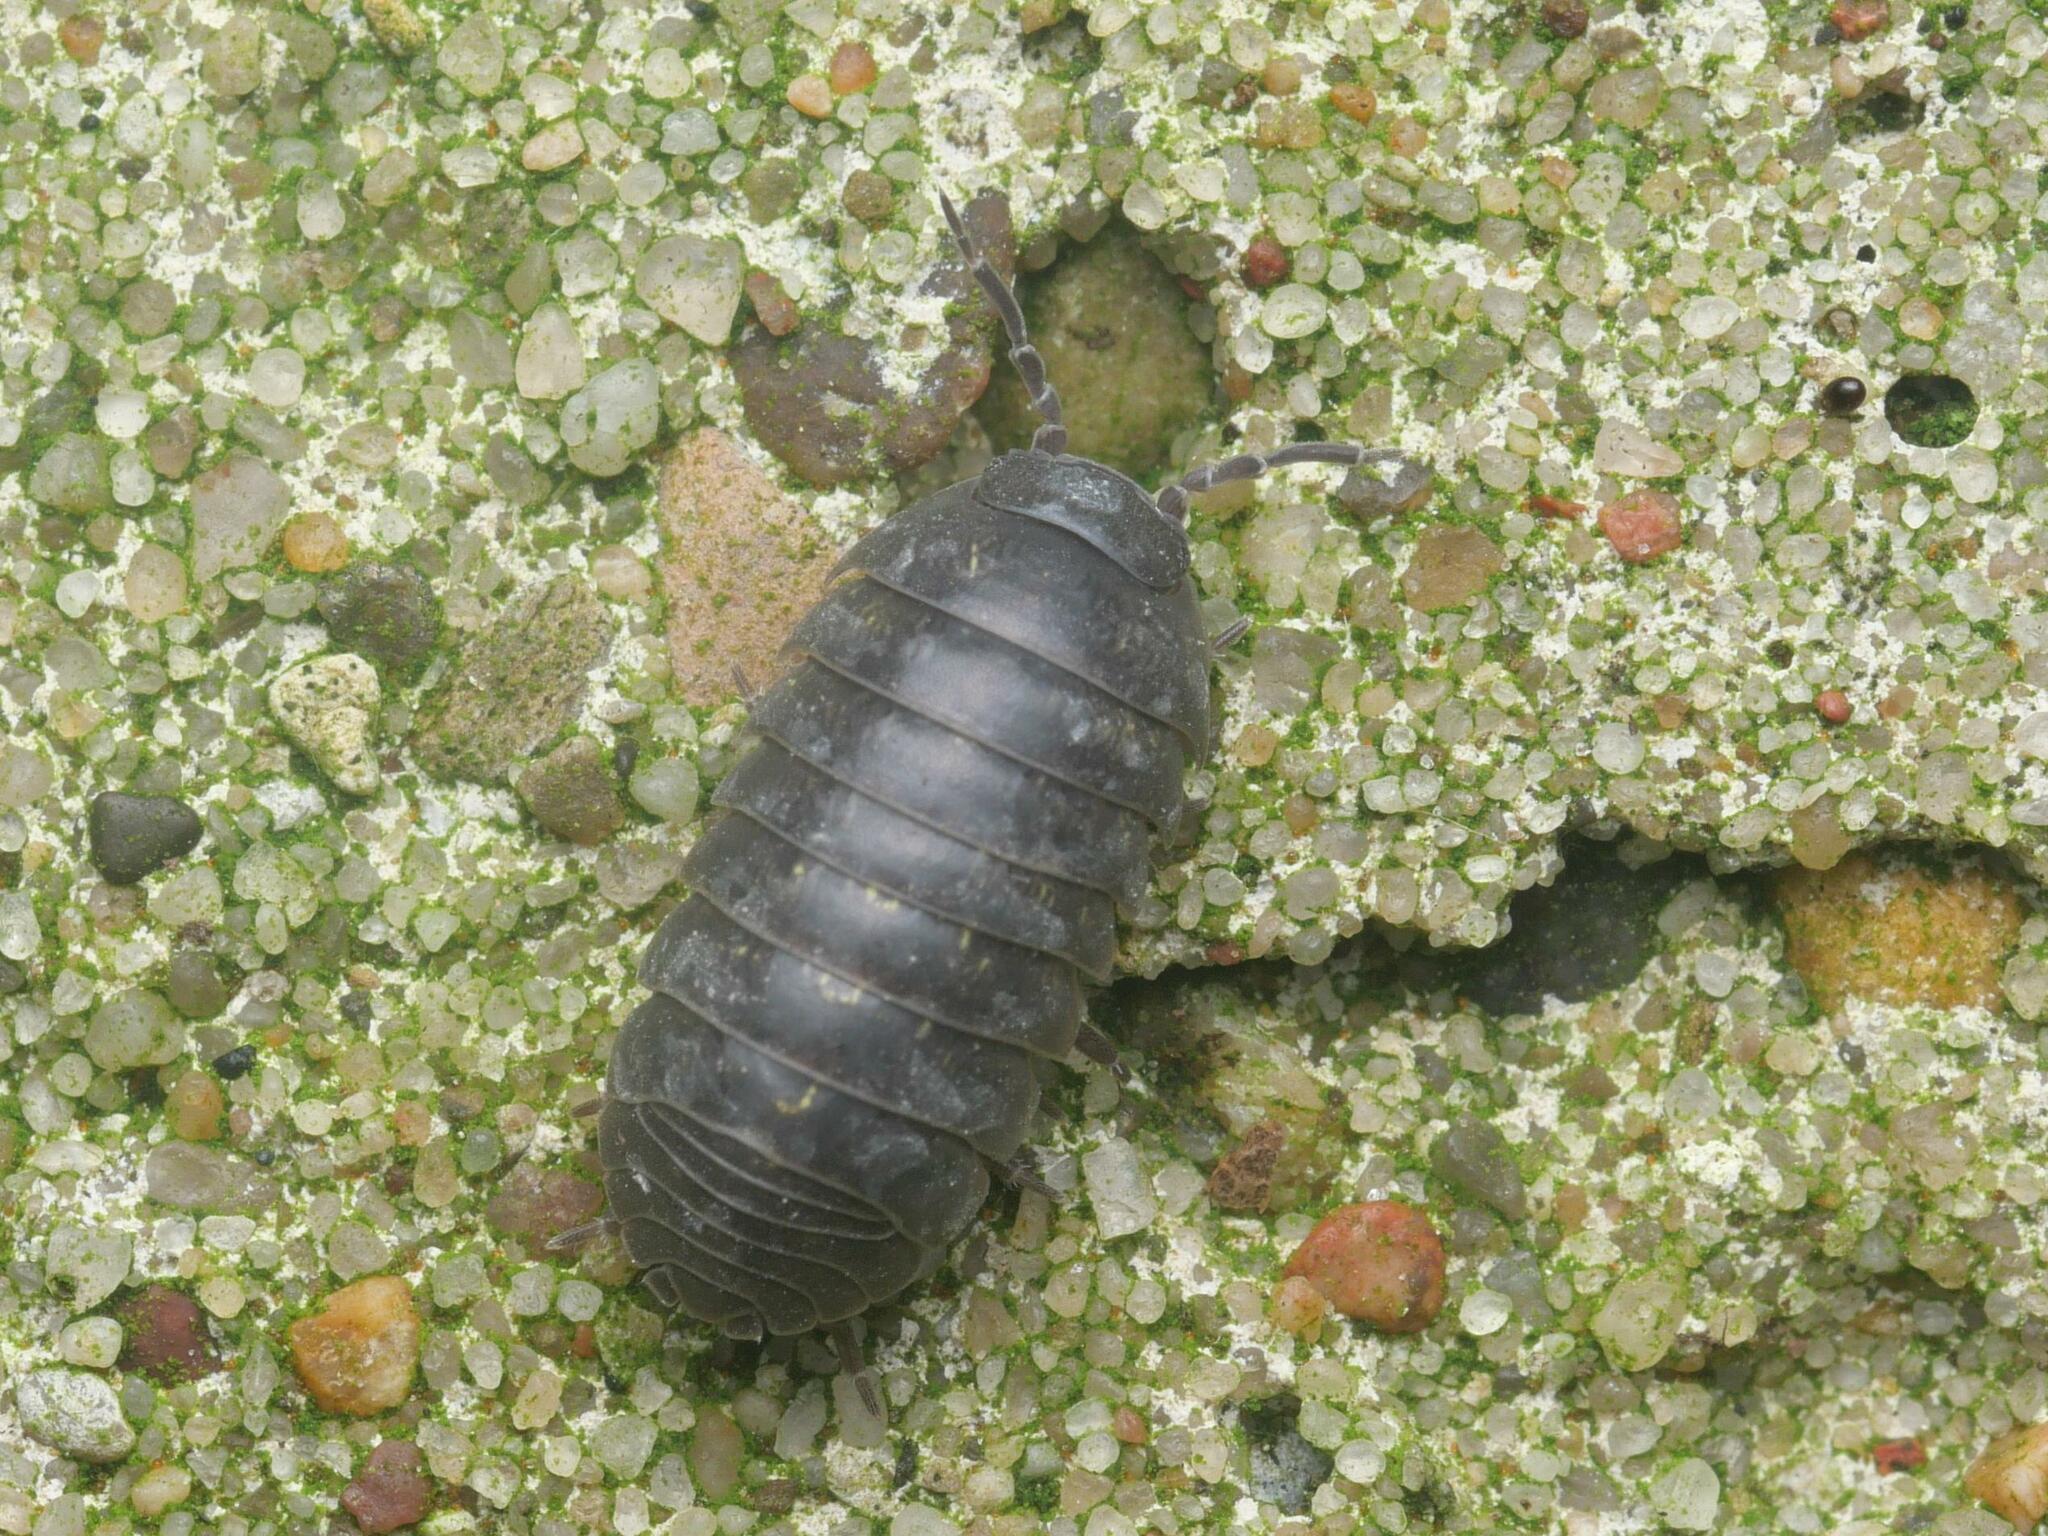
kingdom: Animalia
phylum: Arthropoda
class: Malacostraca
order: Isopoda
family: Armadillidiidae
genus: Armadillidium
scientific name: Armadillidium vulgare
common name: Common pill woodlouse
